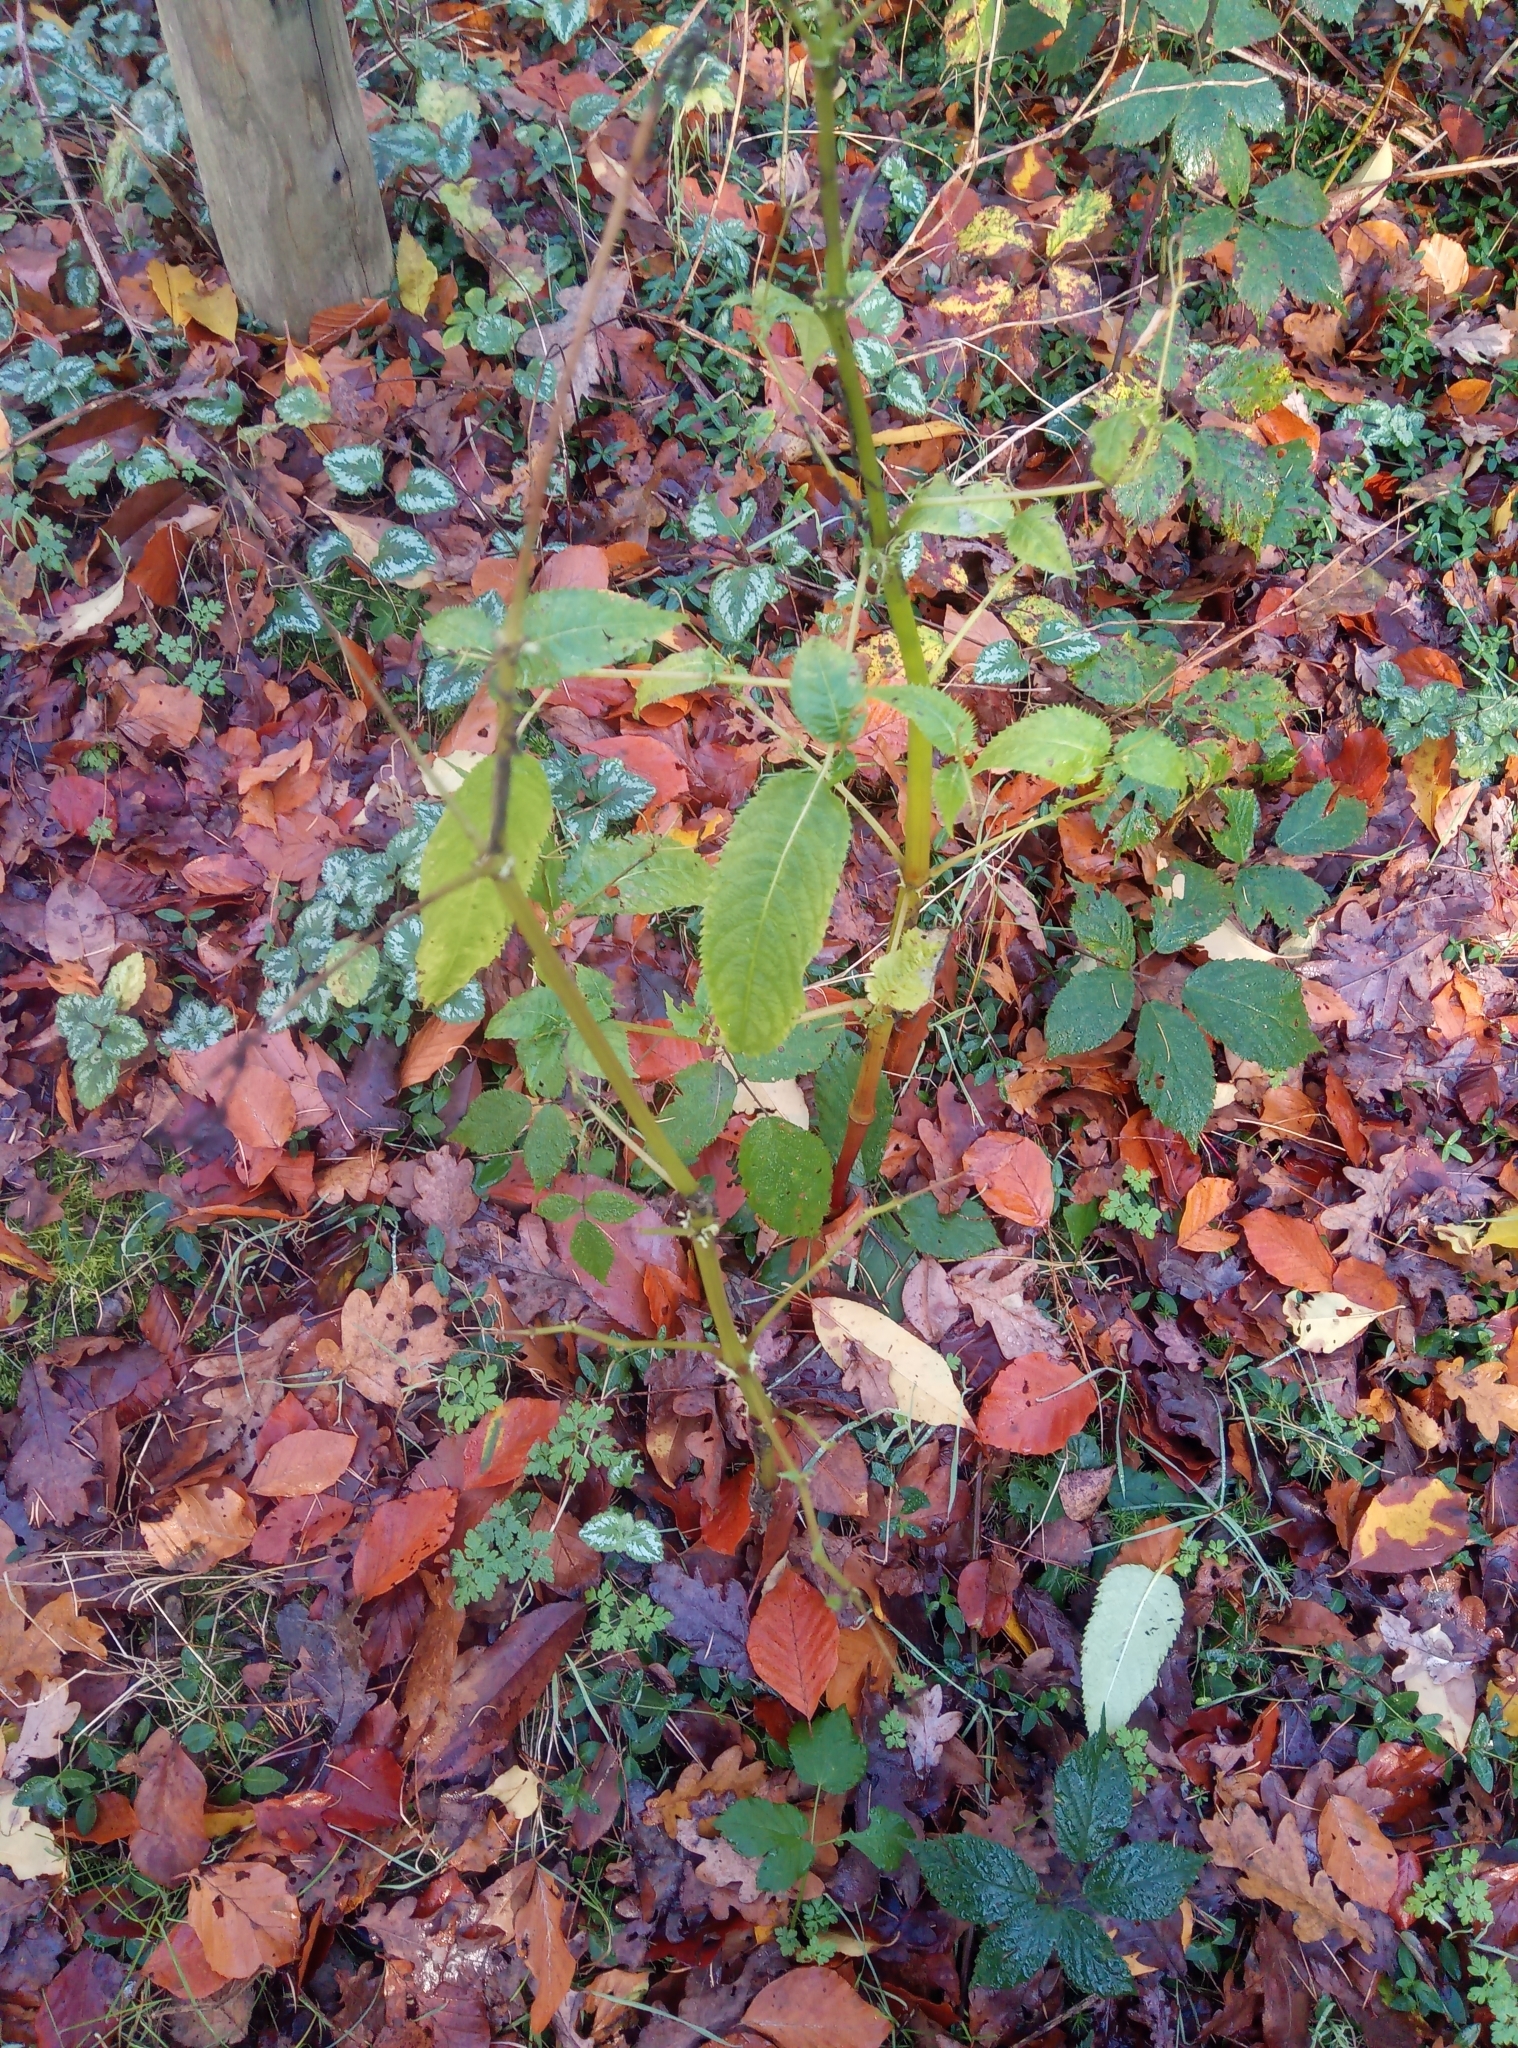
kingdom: Plantae
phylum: Tracheophyta
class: Magnoliopsida
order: Ericales
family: Balsaminaceae
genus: Impatiens
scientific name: Impatiens glandulifera
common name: Himalayan balsam
